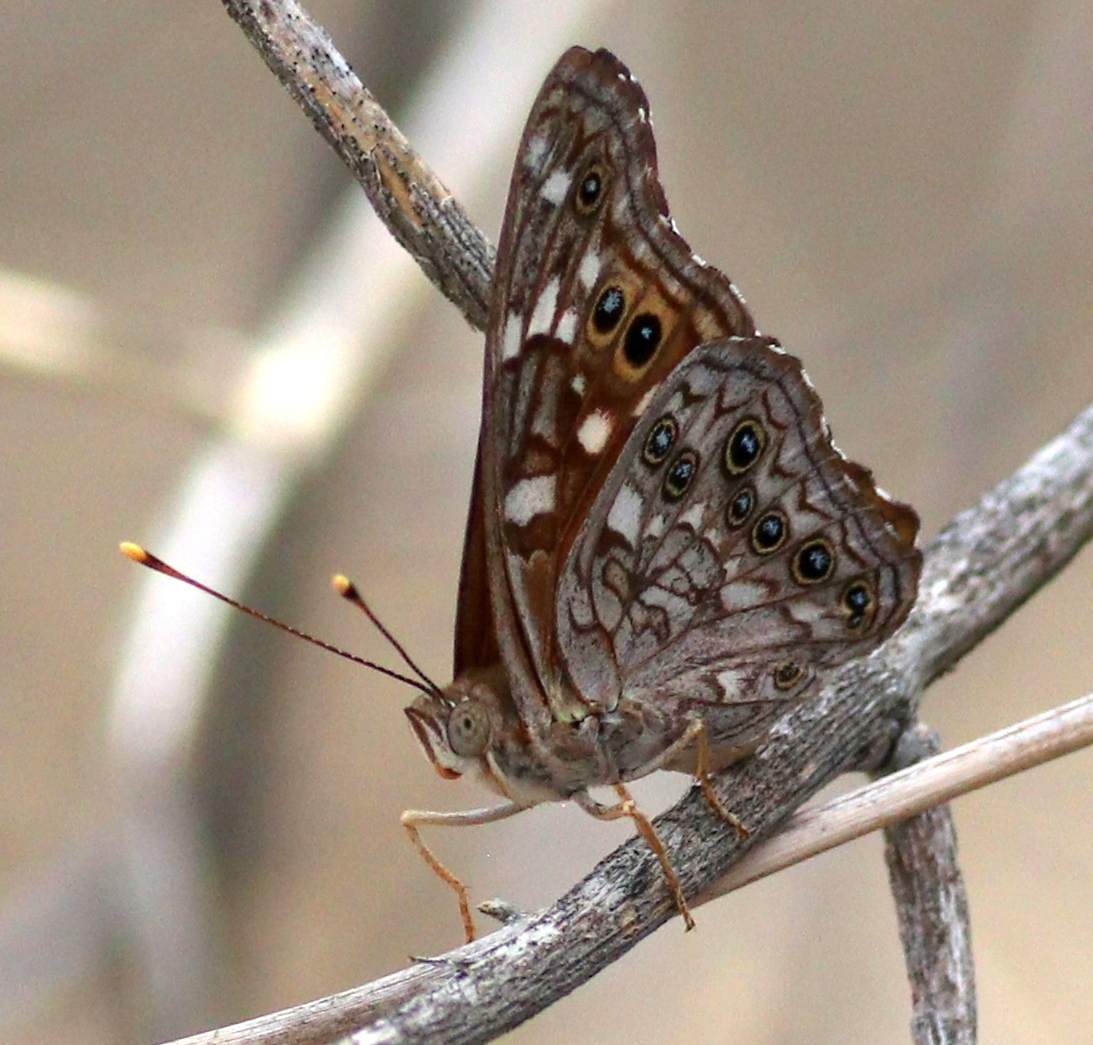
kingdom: Animalia
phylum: Arthropoda
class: Insecta
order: Lepidoptera
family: Nymphalidae
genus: Asterocampa
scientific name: Asterocampa leilia
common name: Empress leilia
